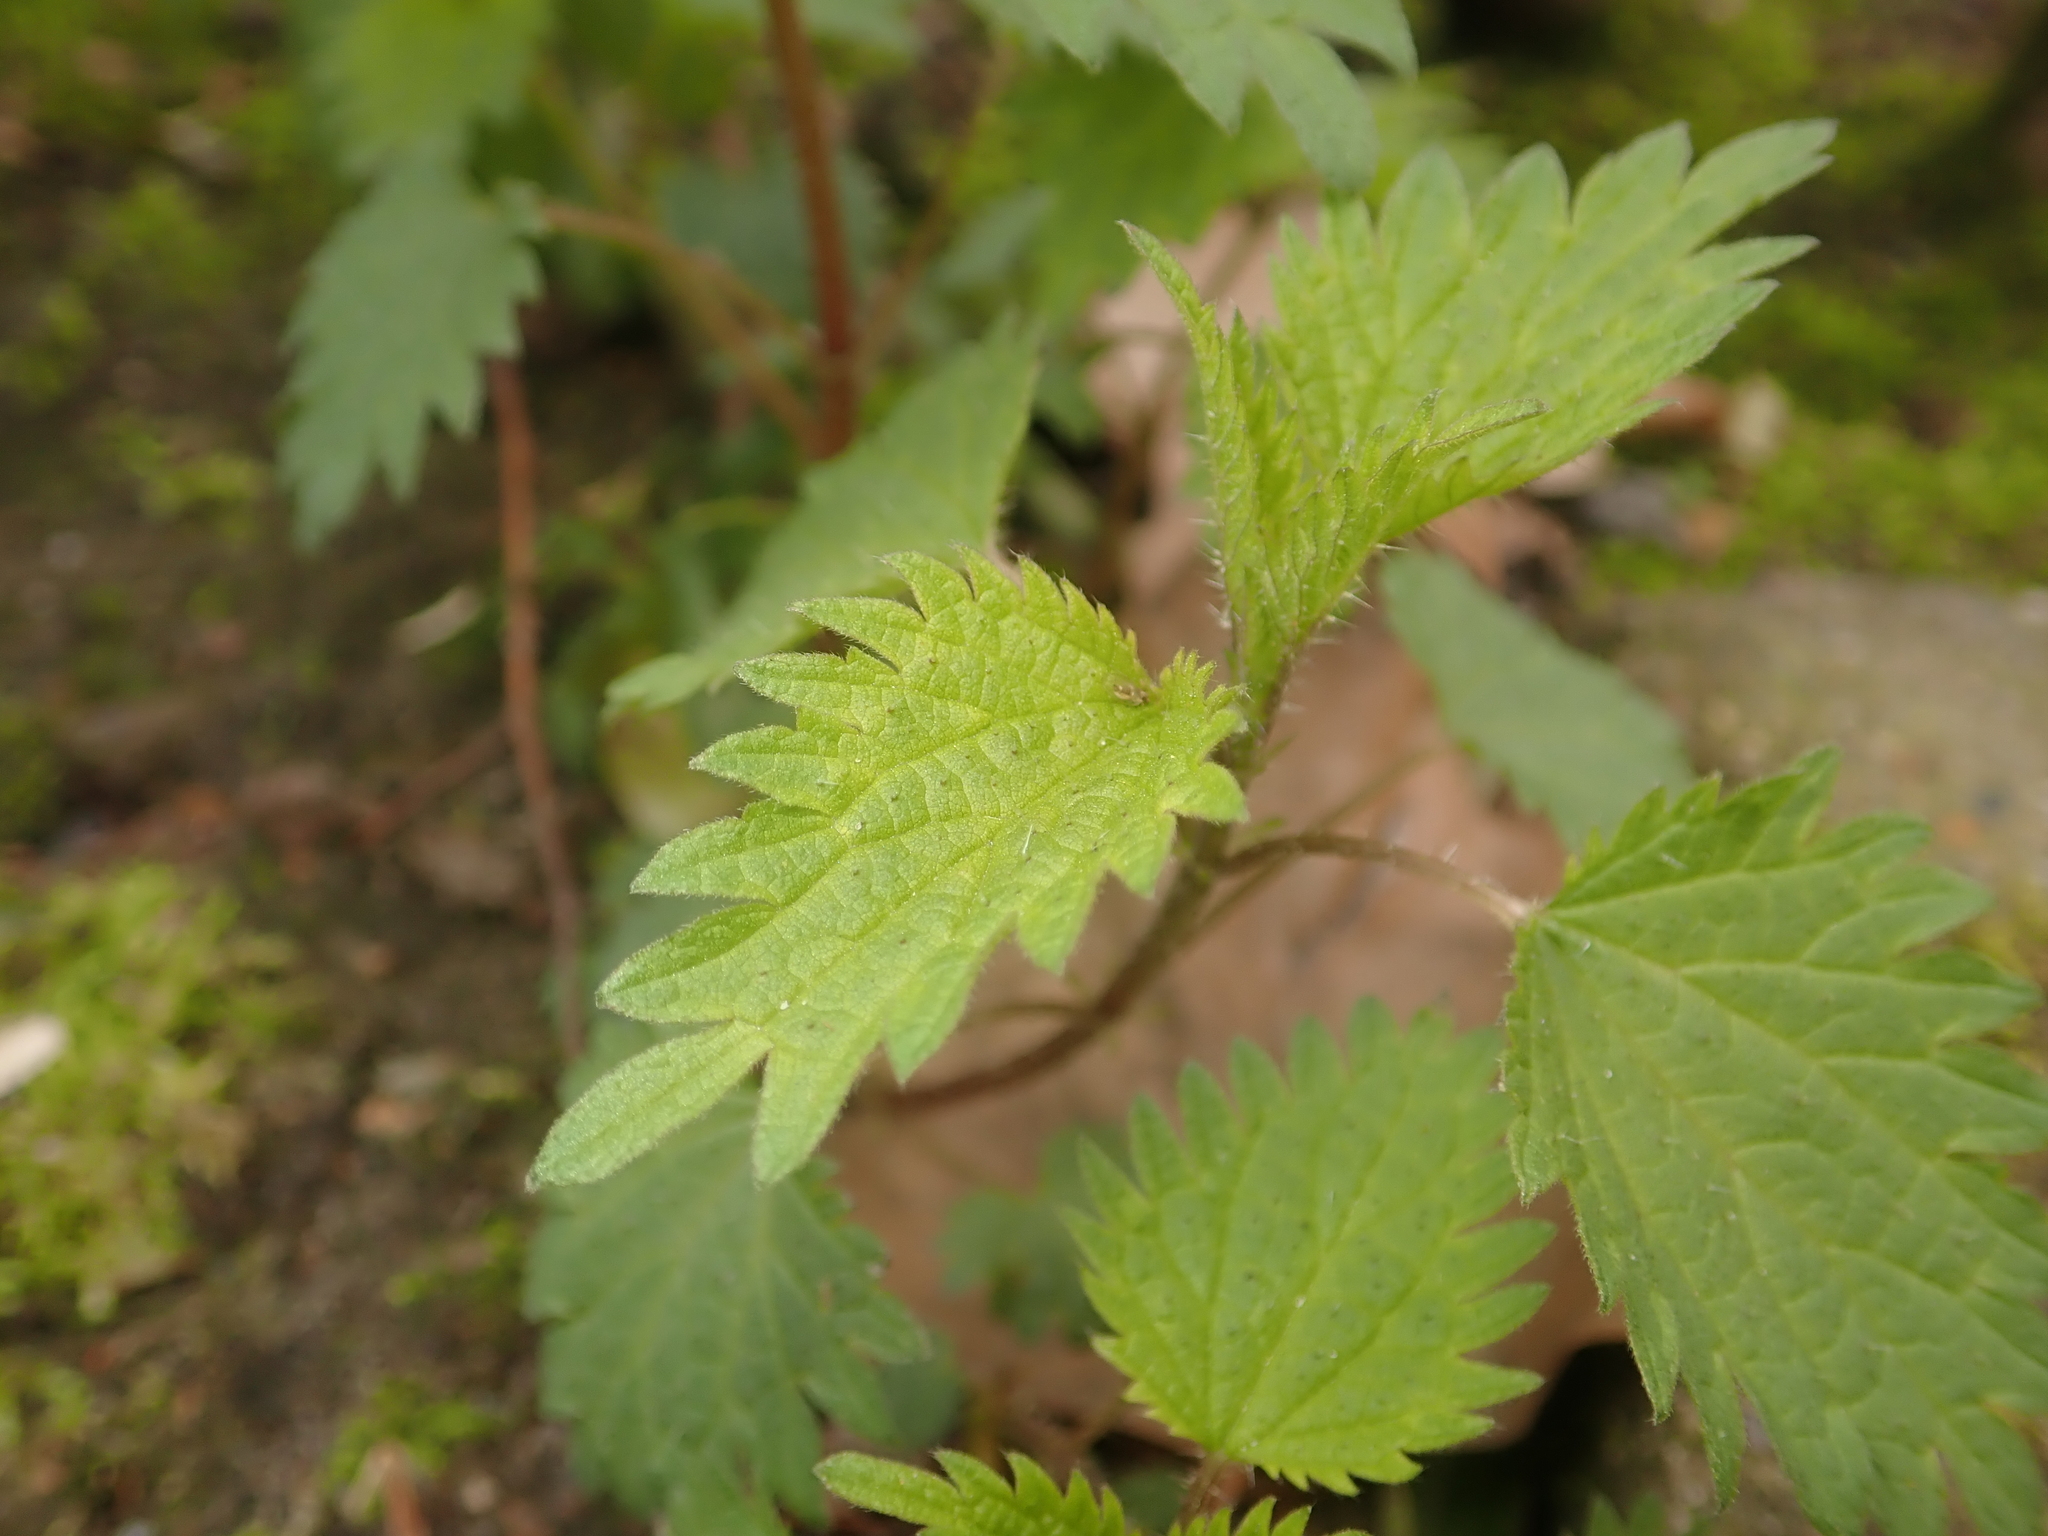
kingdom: Plantae
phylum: Tracheophyta
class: Magnoliopsida
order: Rosales
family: Urticaceae
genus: Urtica
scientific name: Urtica dioica
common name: Common nettle
